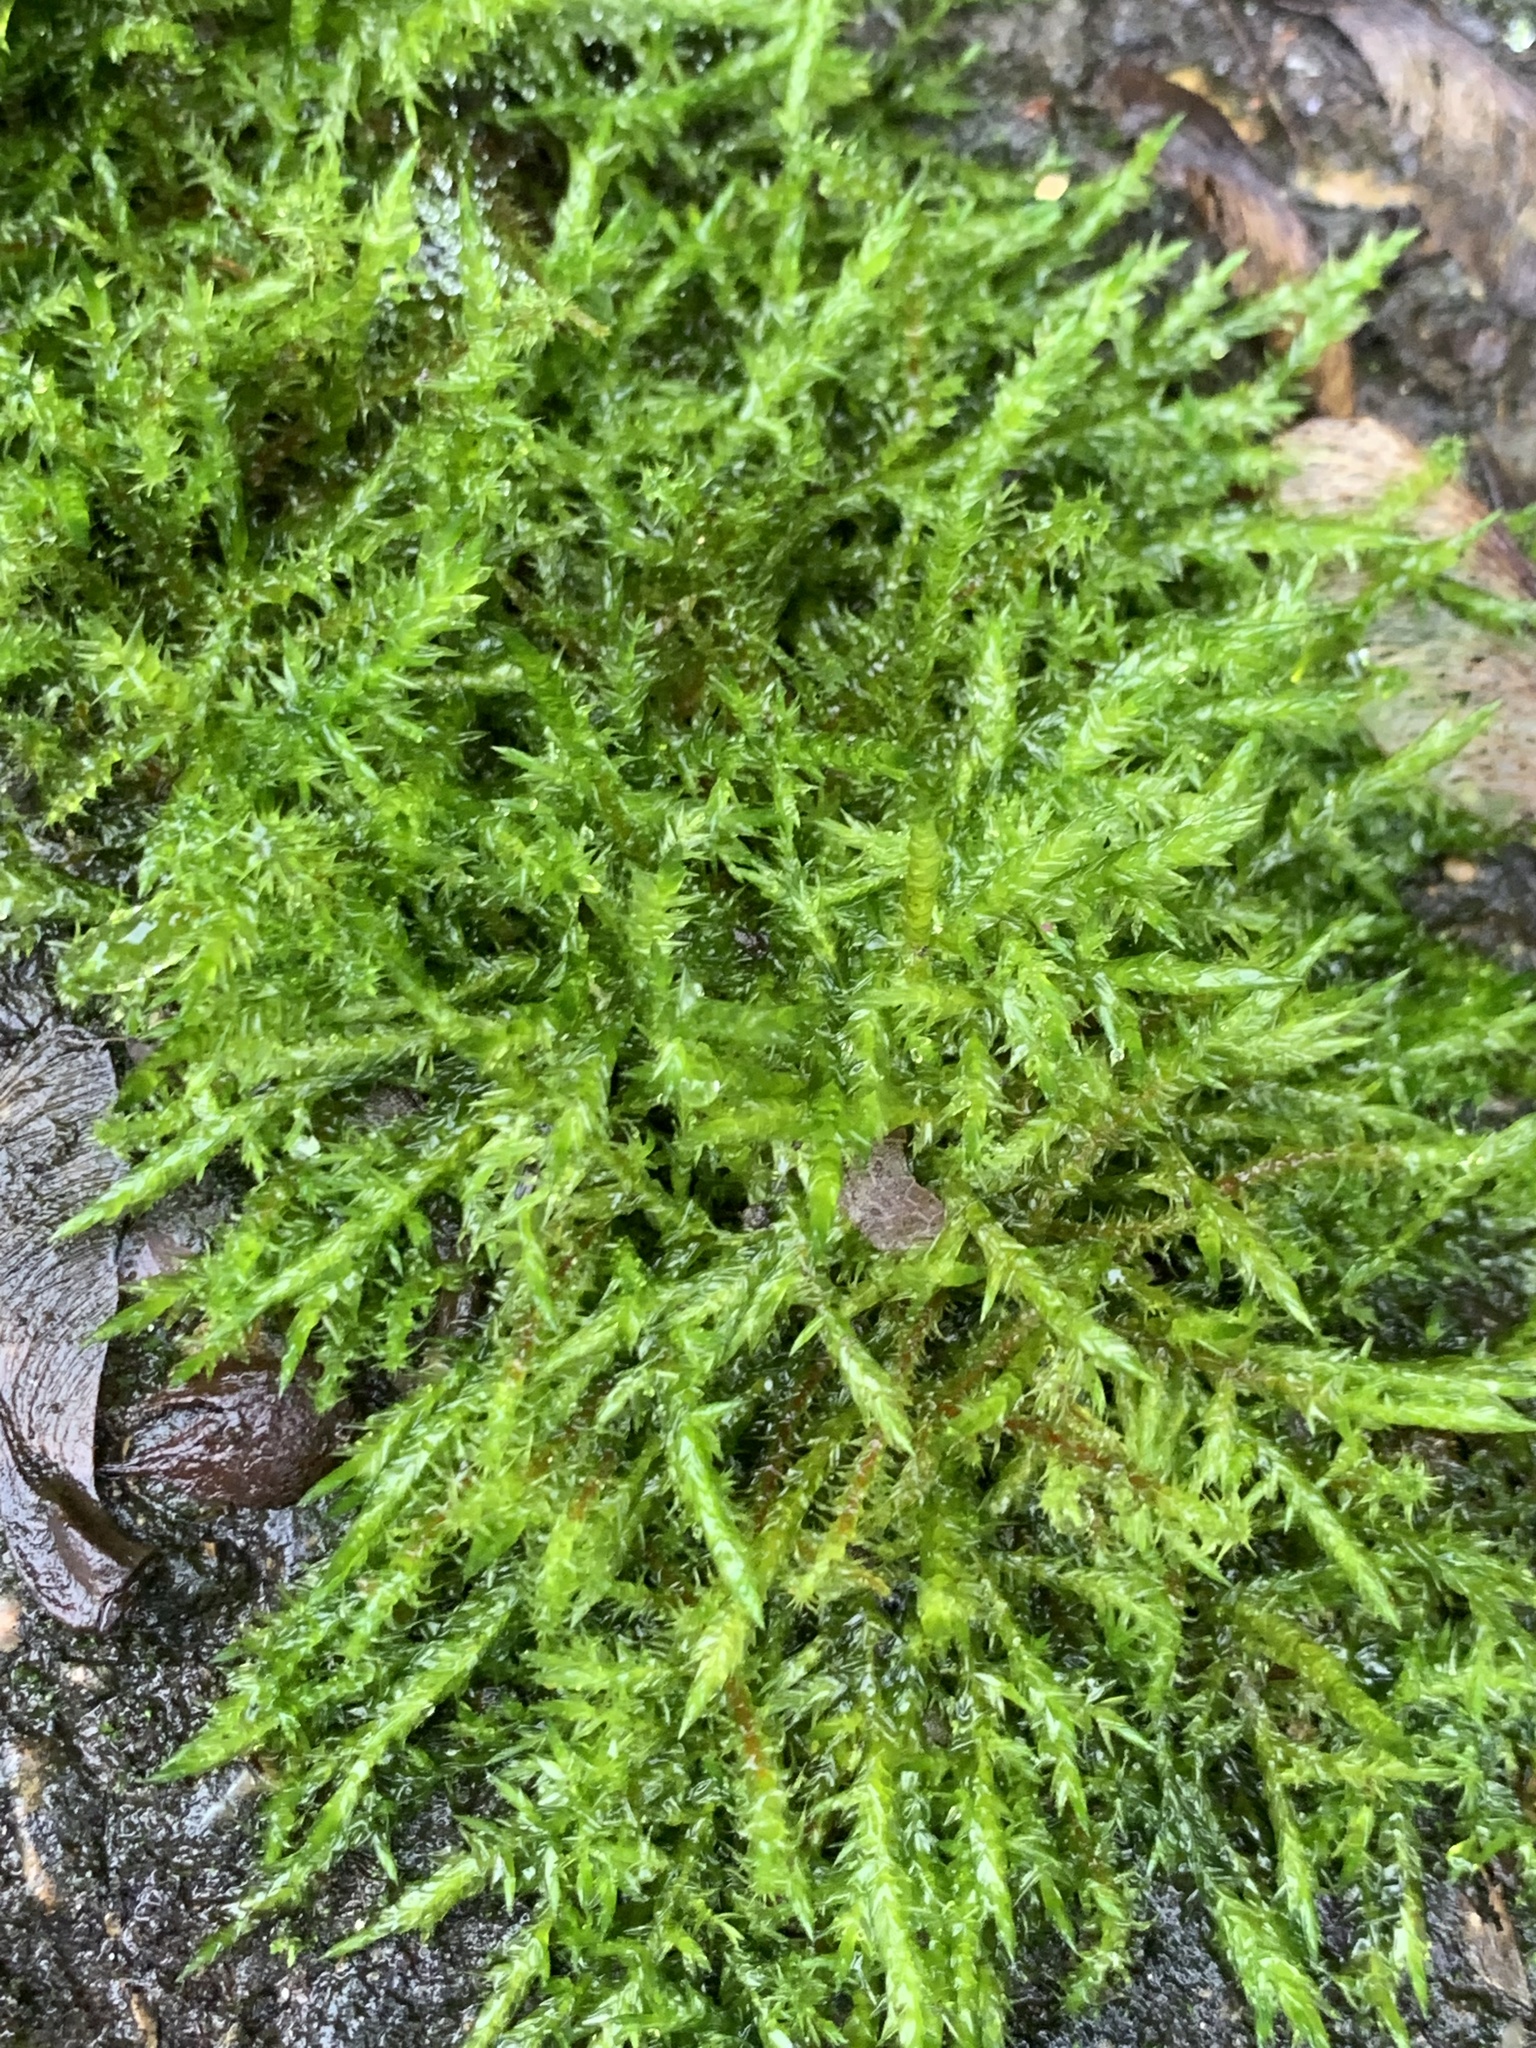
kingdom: Plantae
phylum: Bryophyta
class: Bryopsida
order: Hypnales
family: Pylaisiaceae
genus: Calliergonella
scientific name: Calliergonella cuspidata
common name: Common large wetland moss
